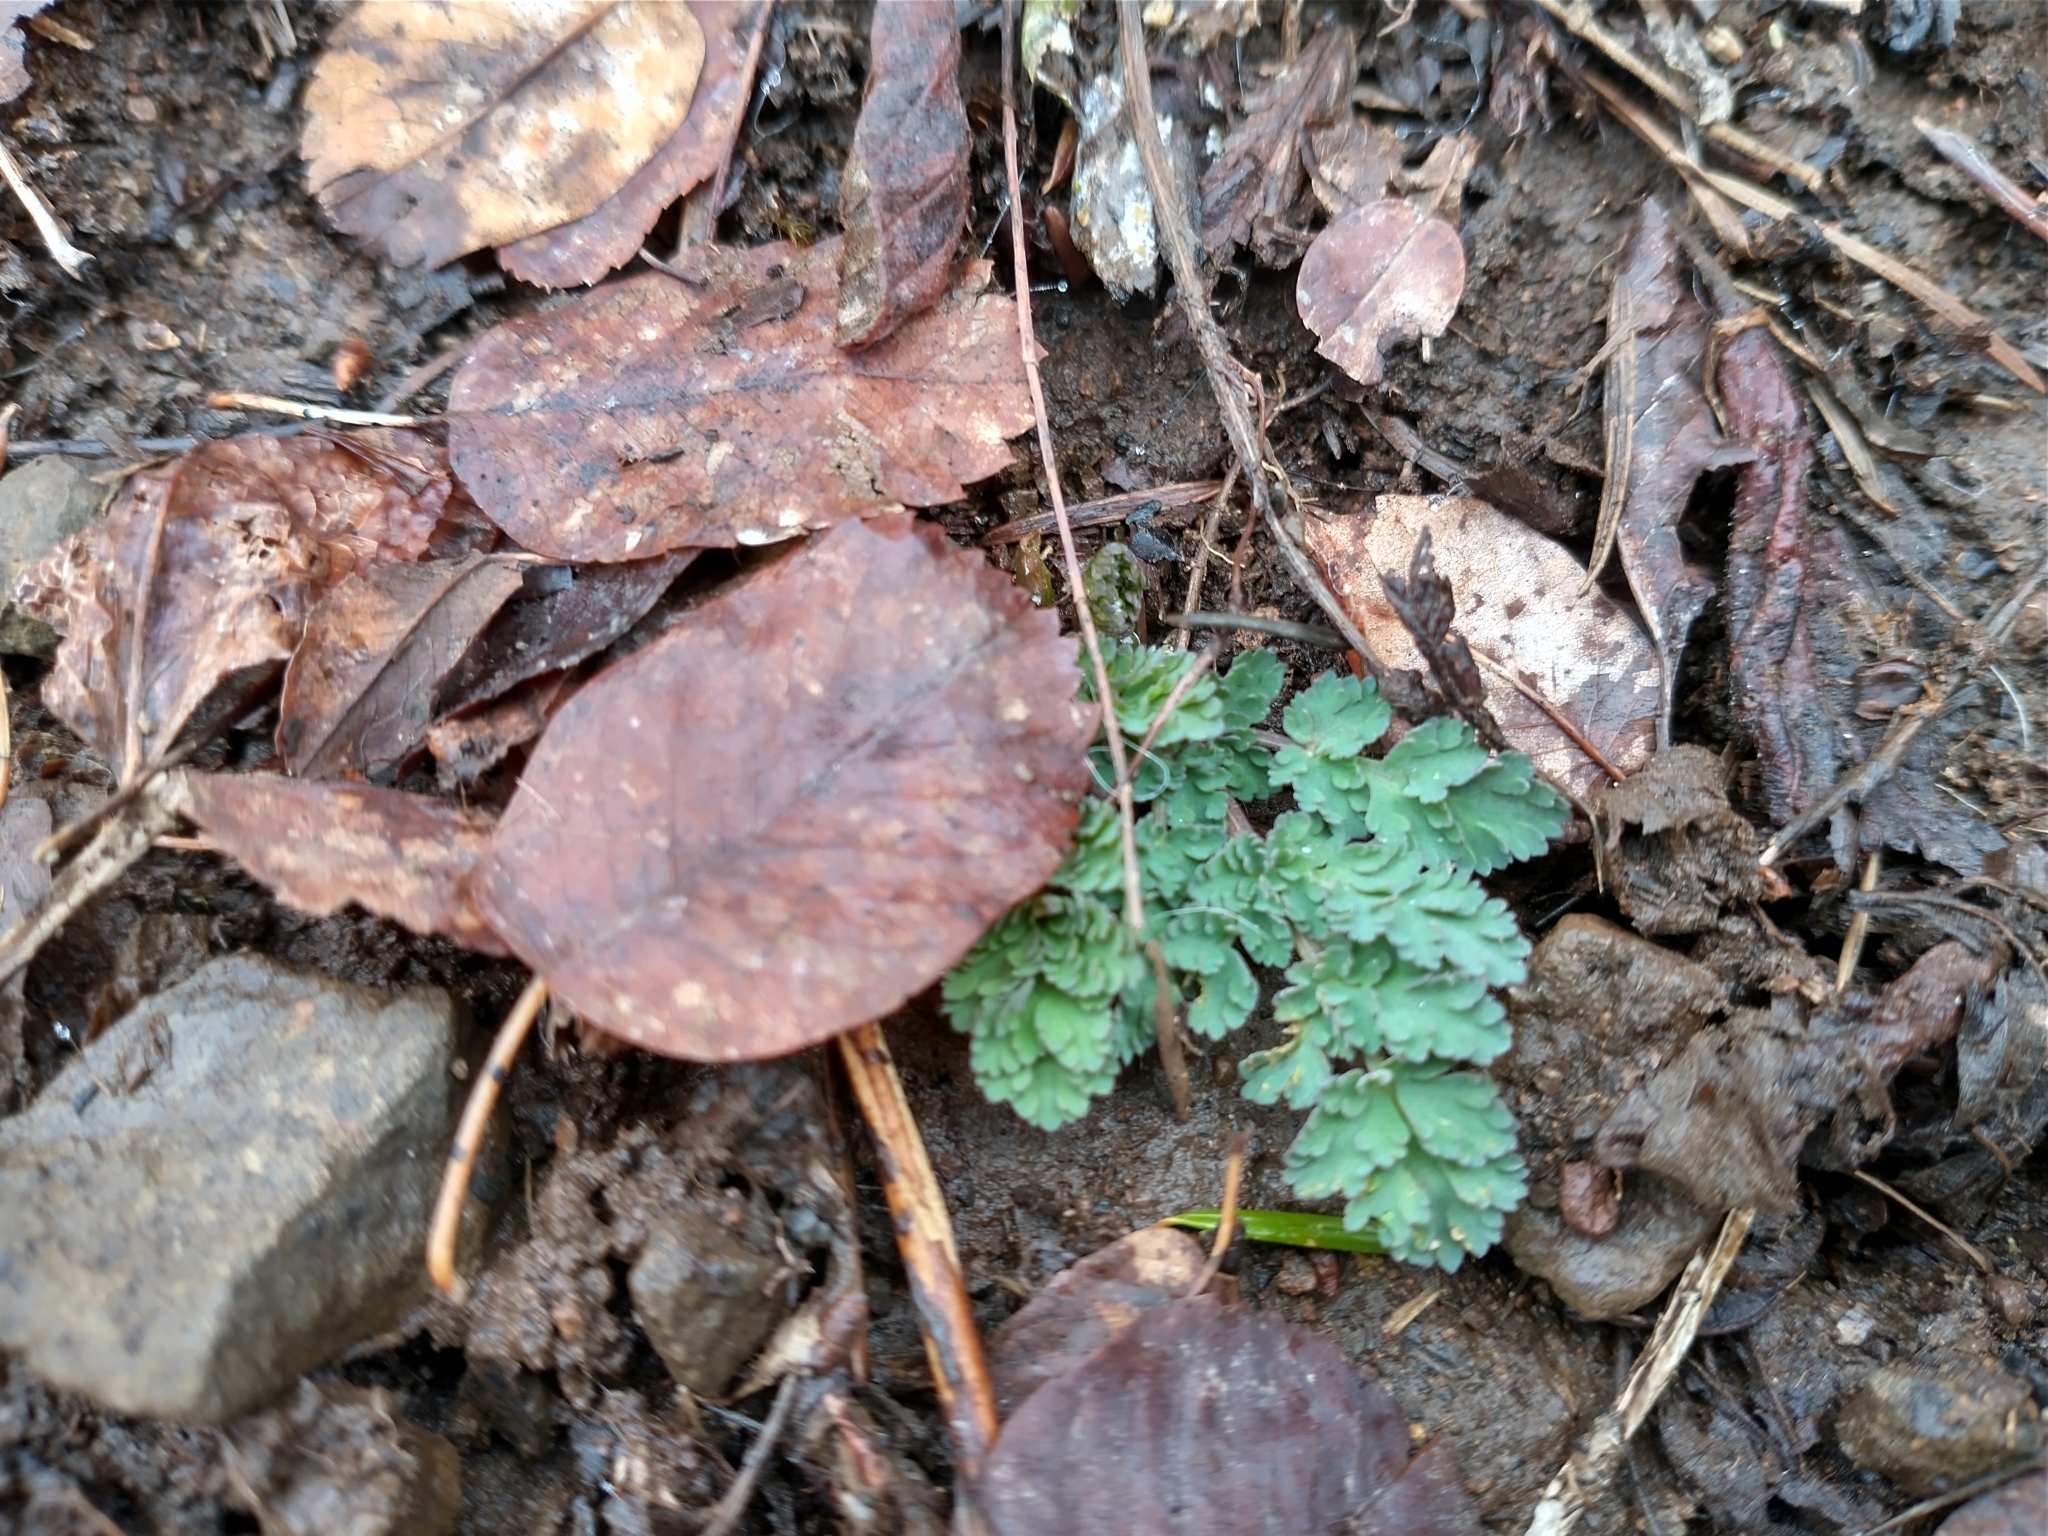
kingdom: Plantae
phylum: Tracheophyta
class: Magnoliopsida
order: Apiales
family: Apiaceae
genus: Lomatium
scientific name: Lomatium martindalei
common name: Cascade desert-parsley
